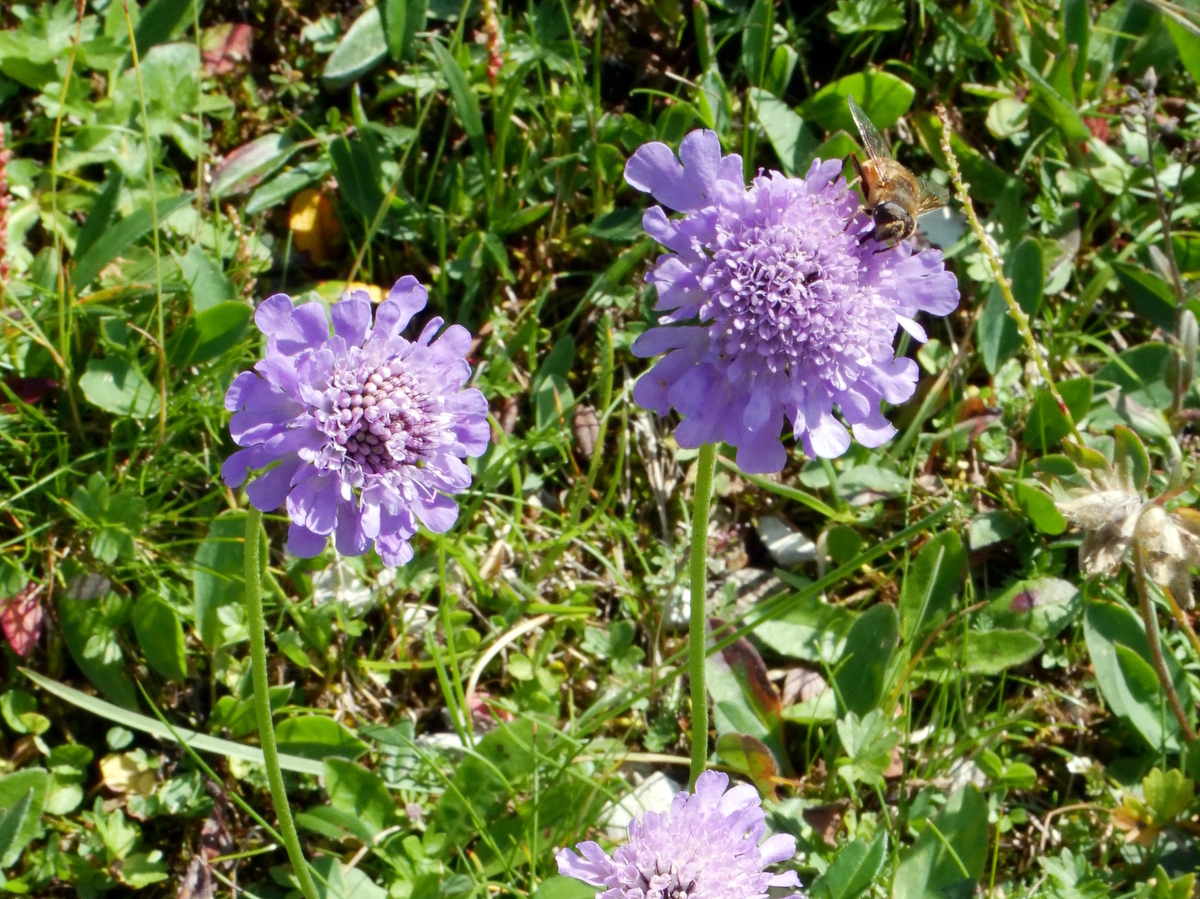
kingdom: Plantae
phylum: Tracheophyta
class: Magnoliopsida
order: Dipsacales
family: Caprifoliaceae
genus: Scabiosa
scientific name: Scabiosa lucida
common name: Shining scabious
